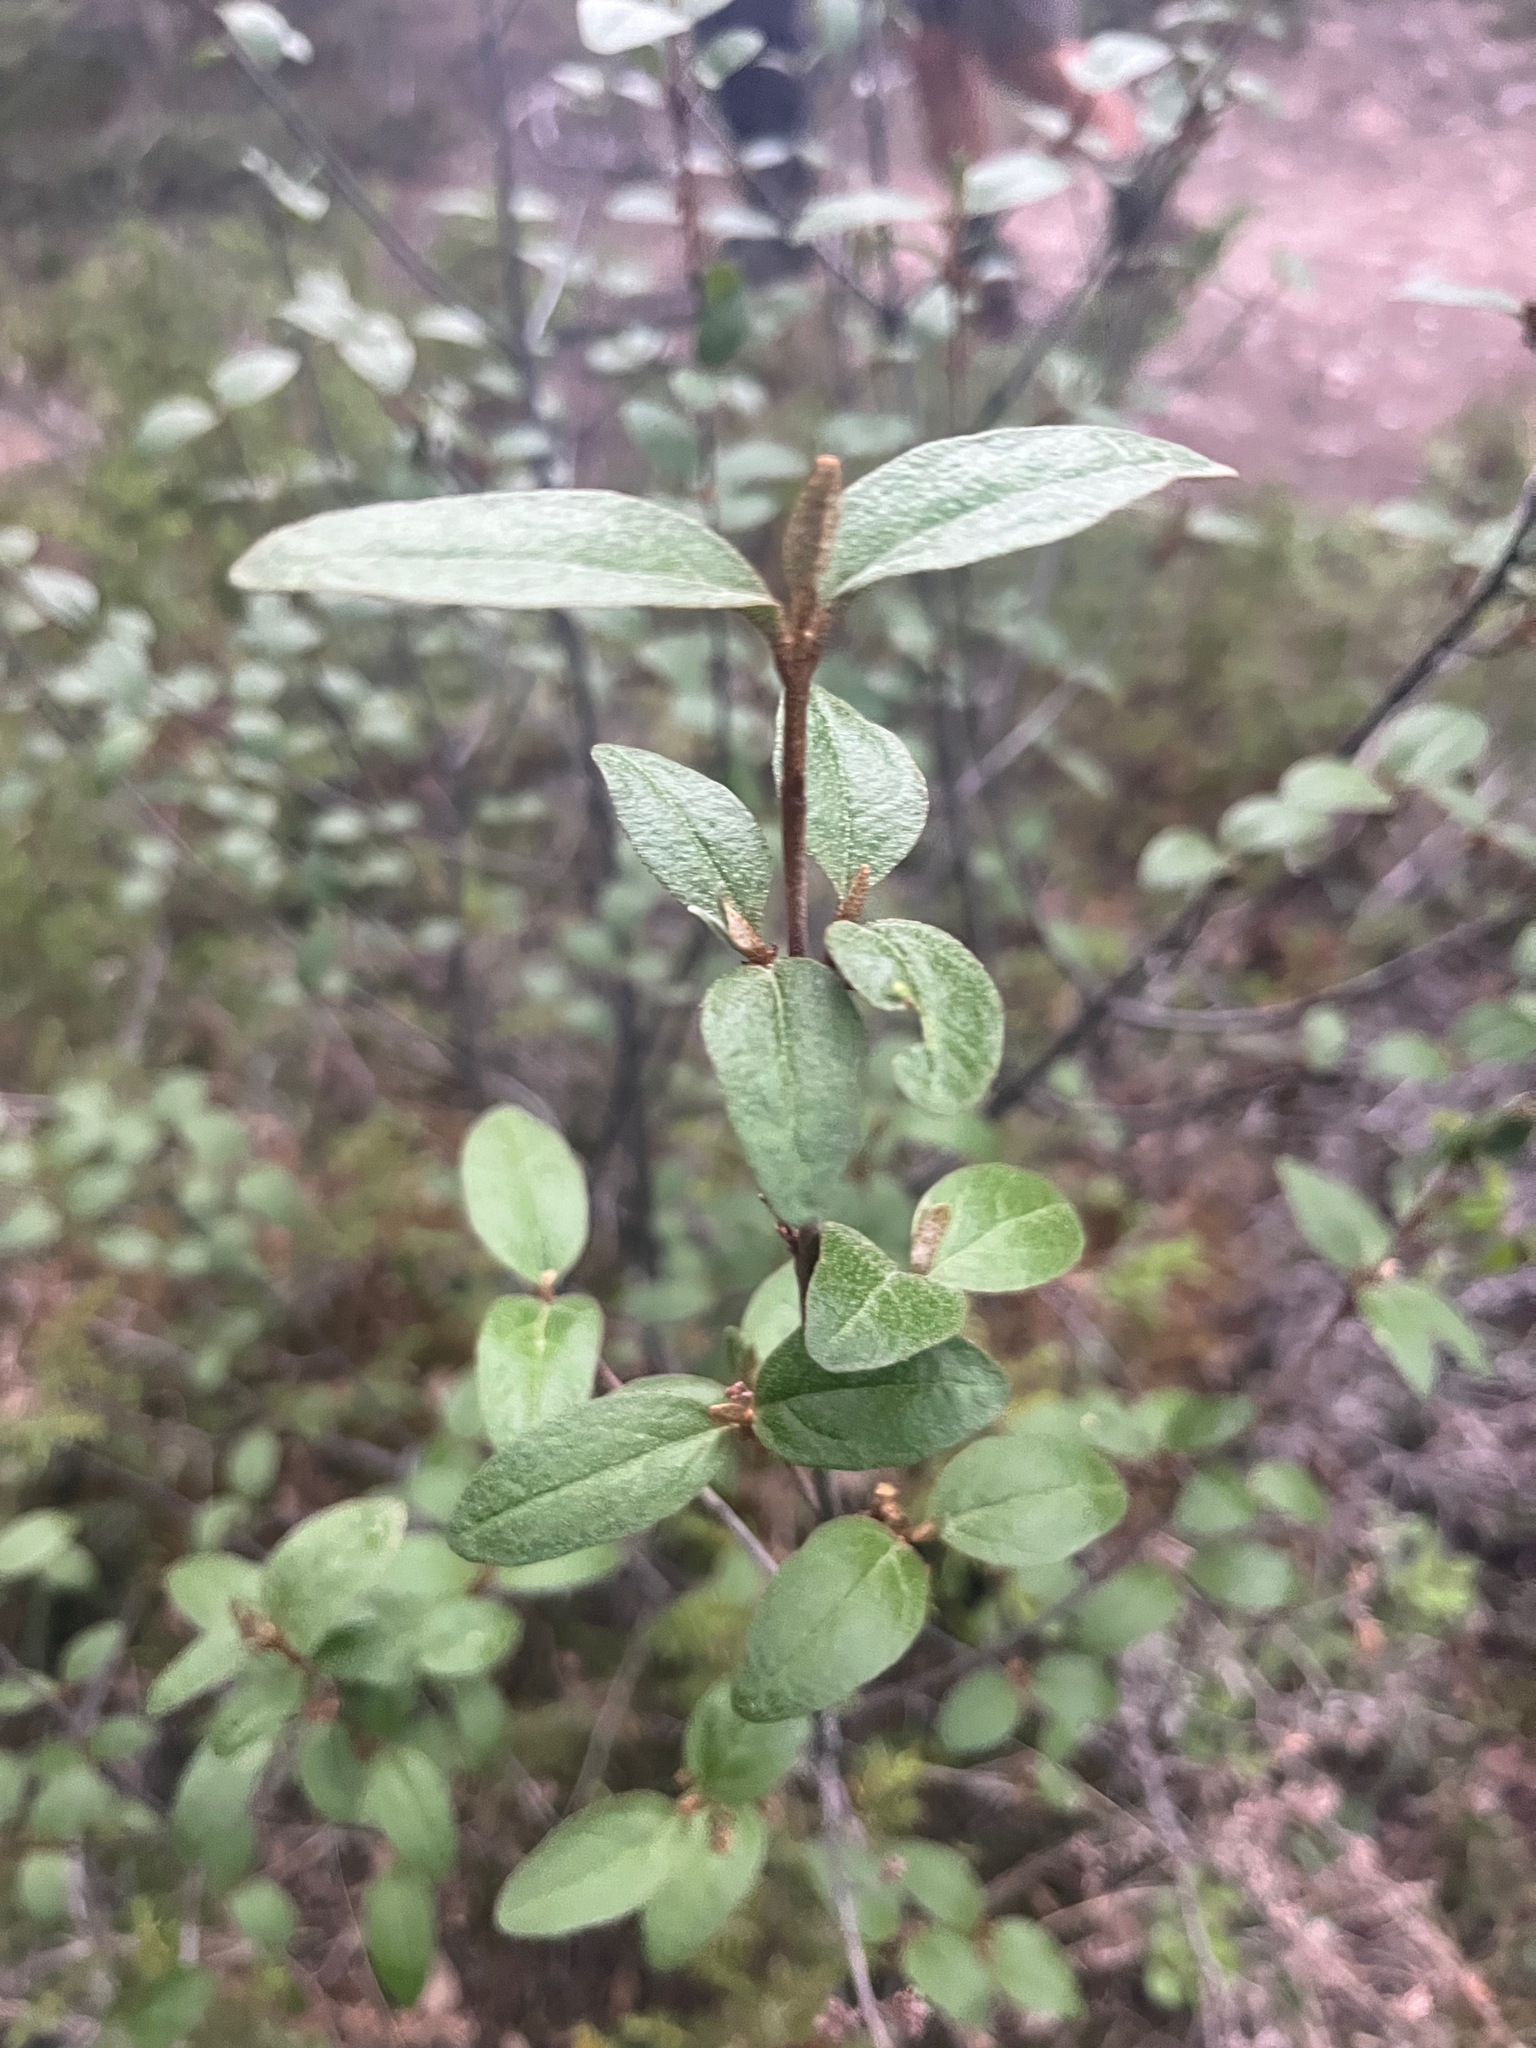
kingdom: Plantae
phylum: Tracheophyta
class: Magnoliopsida
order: Rosales
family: Elaeagnaceae
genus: Shepherdia
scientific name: Shepherdia canadensis
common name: Soapberry
